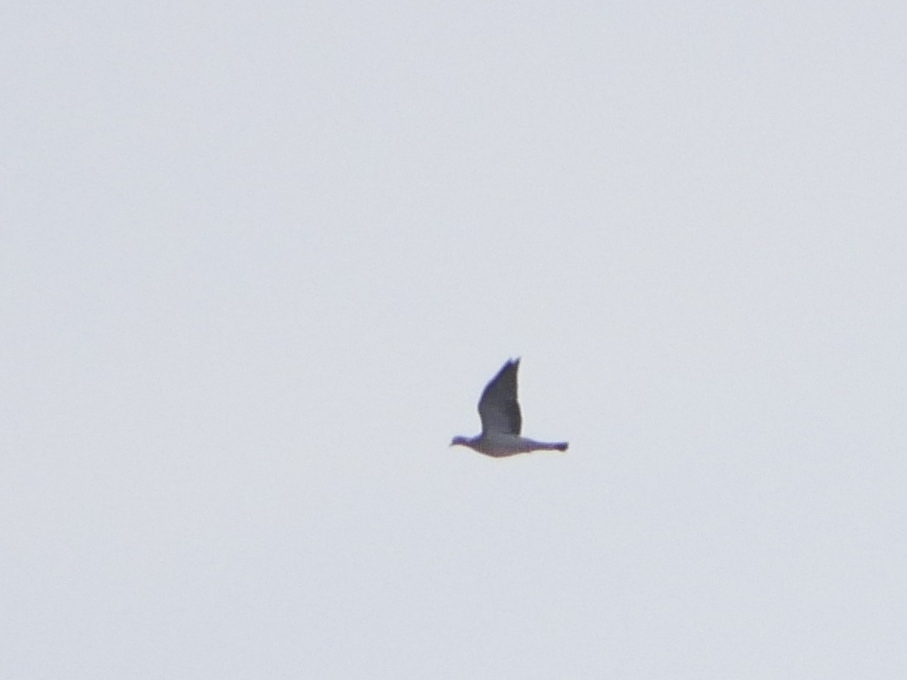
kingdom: Animalia
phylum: Chordata
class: Aves
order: Columbiformes
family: Columbidae
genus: Columba
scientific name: Columba palumbus
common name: Common wood pigeon
